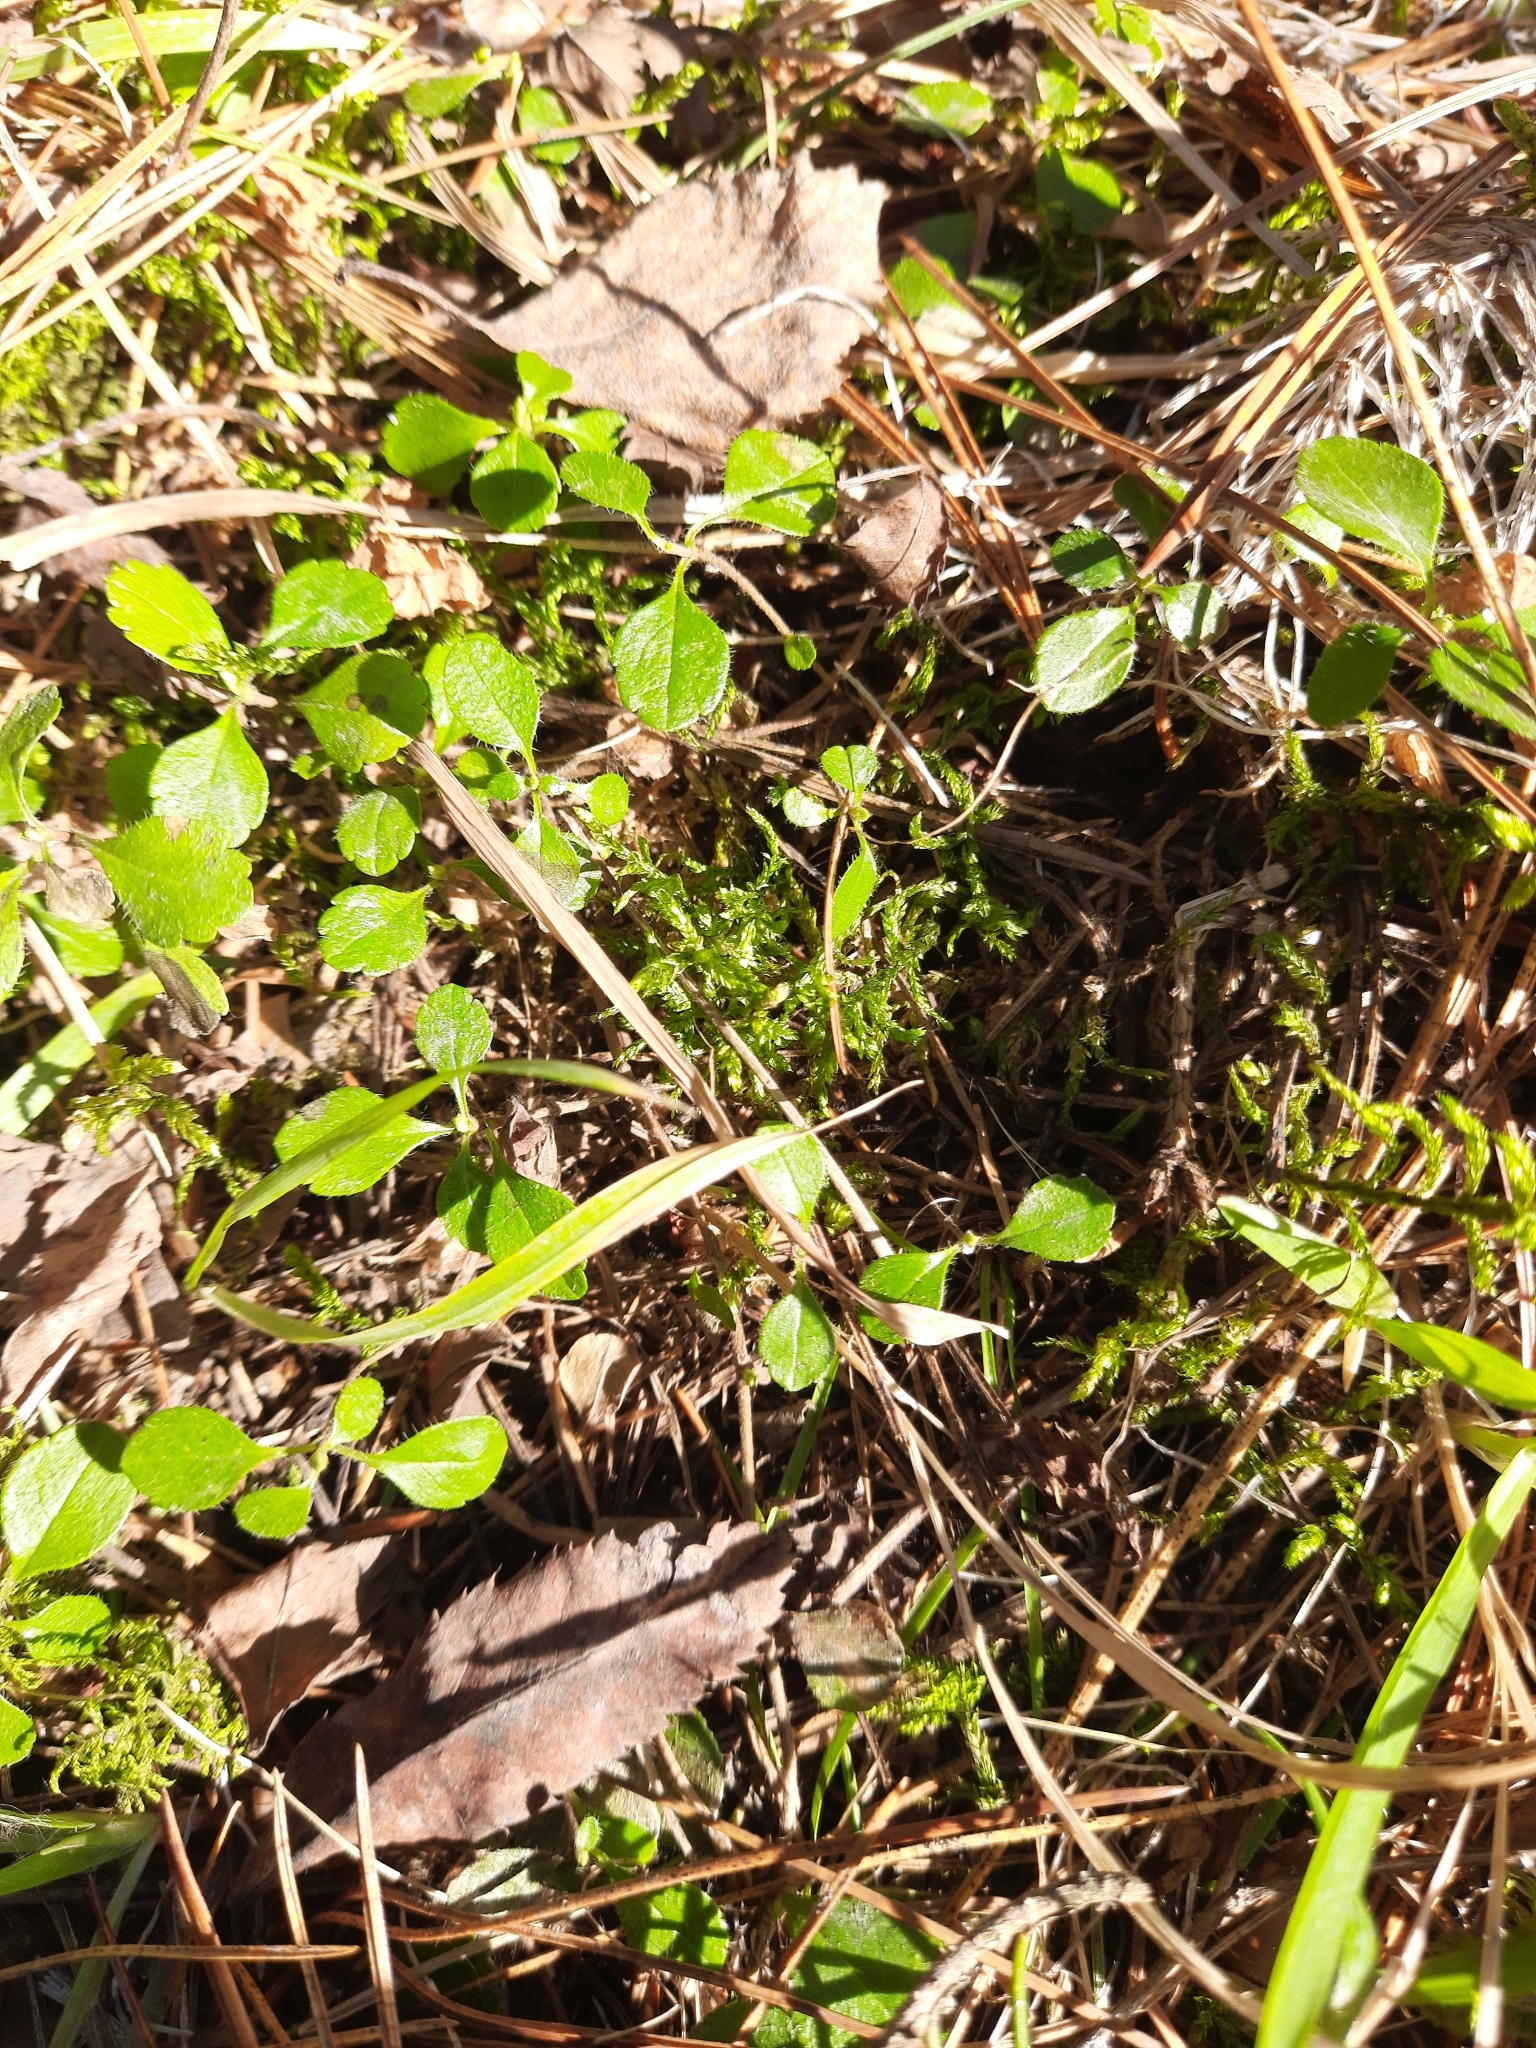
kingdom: Plantae
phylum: Tracheophyta
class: Magnoliopsida
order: Dipsacales
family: Caprifoliaceae
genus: Linnaea
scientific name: Linnaea borealis
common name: Twinflower
